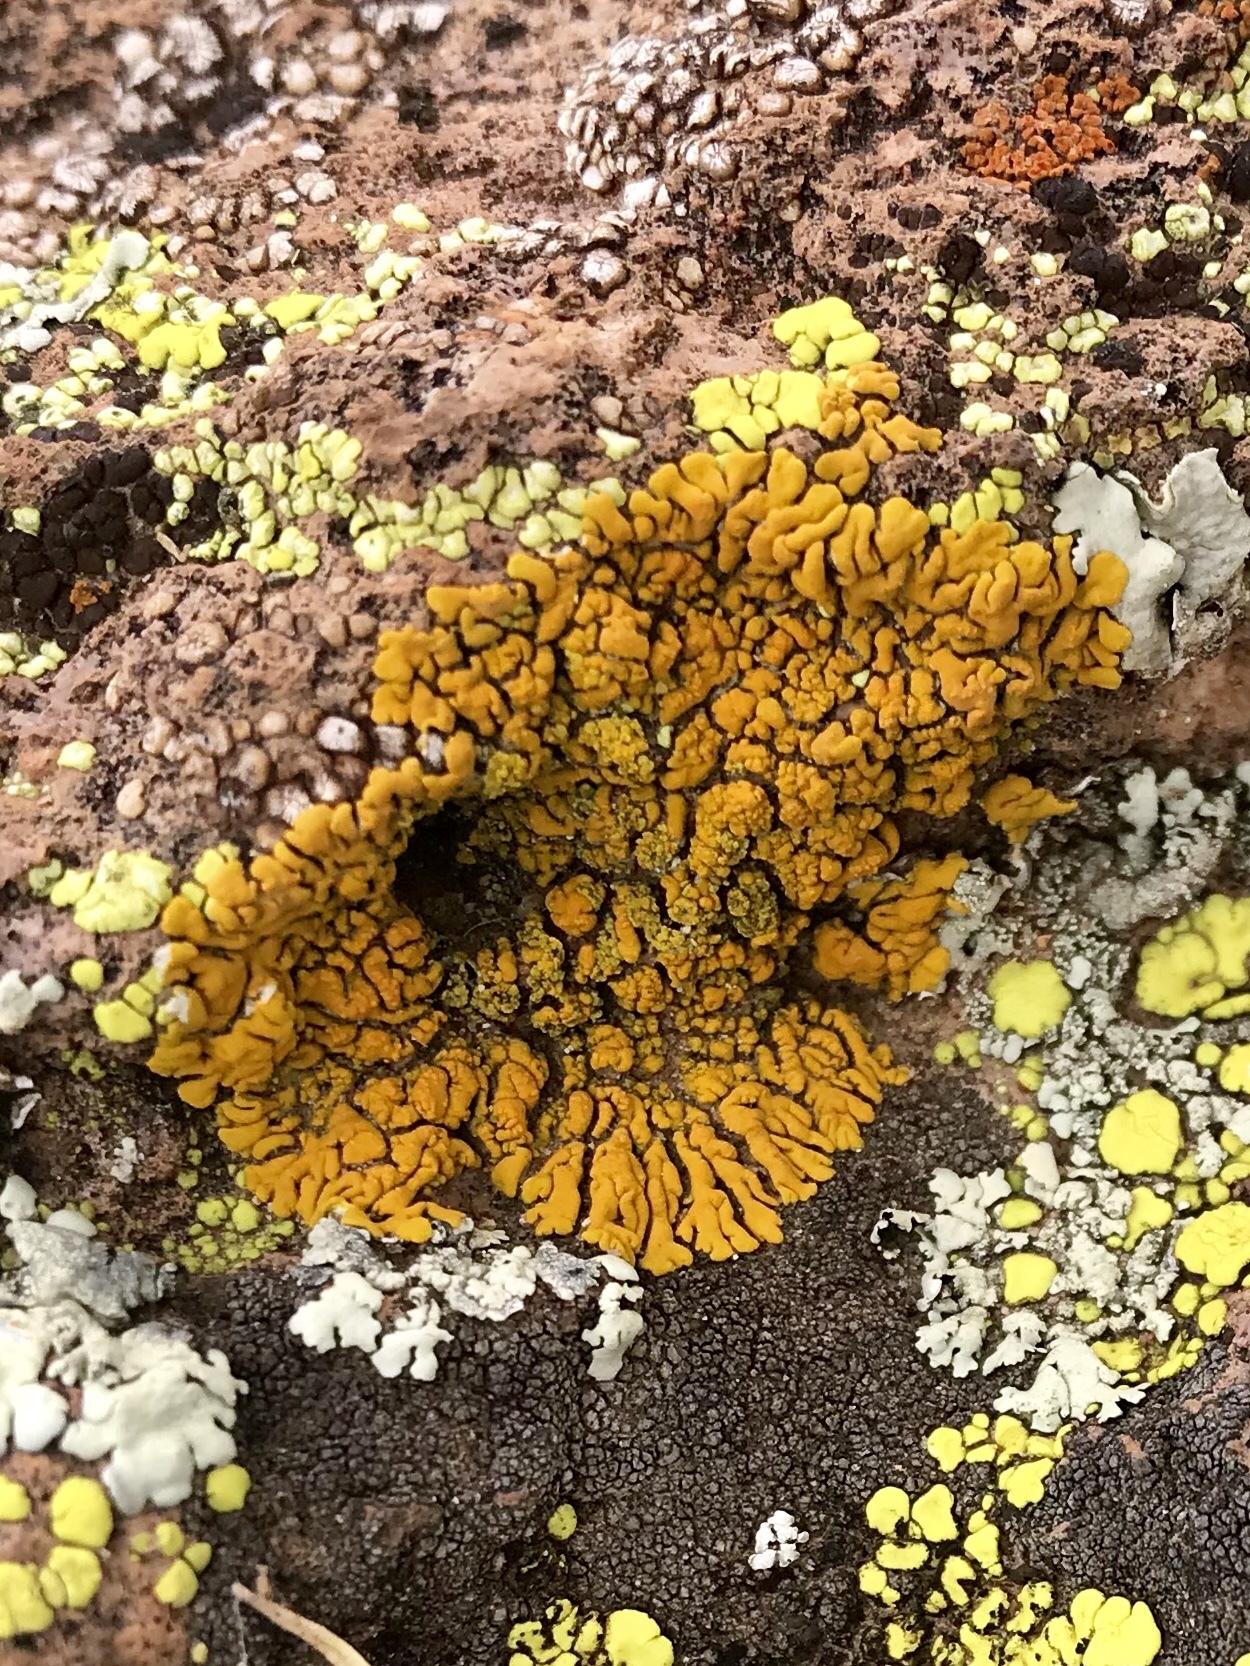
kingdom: Fungi
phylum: Ascomycota
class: Lecanoromycetes
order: Teloschistales
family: Teloschistaceae
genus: Xanthoria
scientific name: Xanthoria elegans
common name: Elegant sunburst lichen
